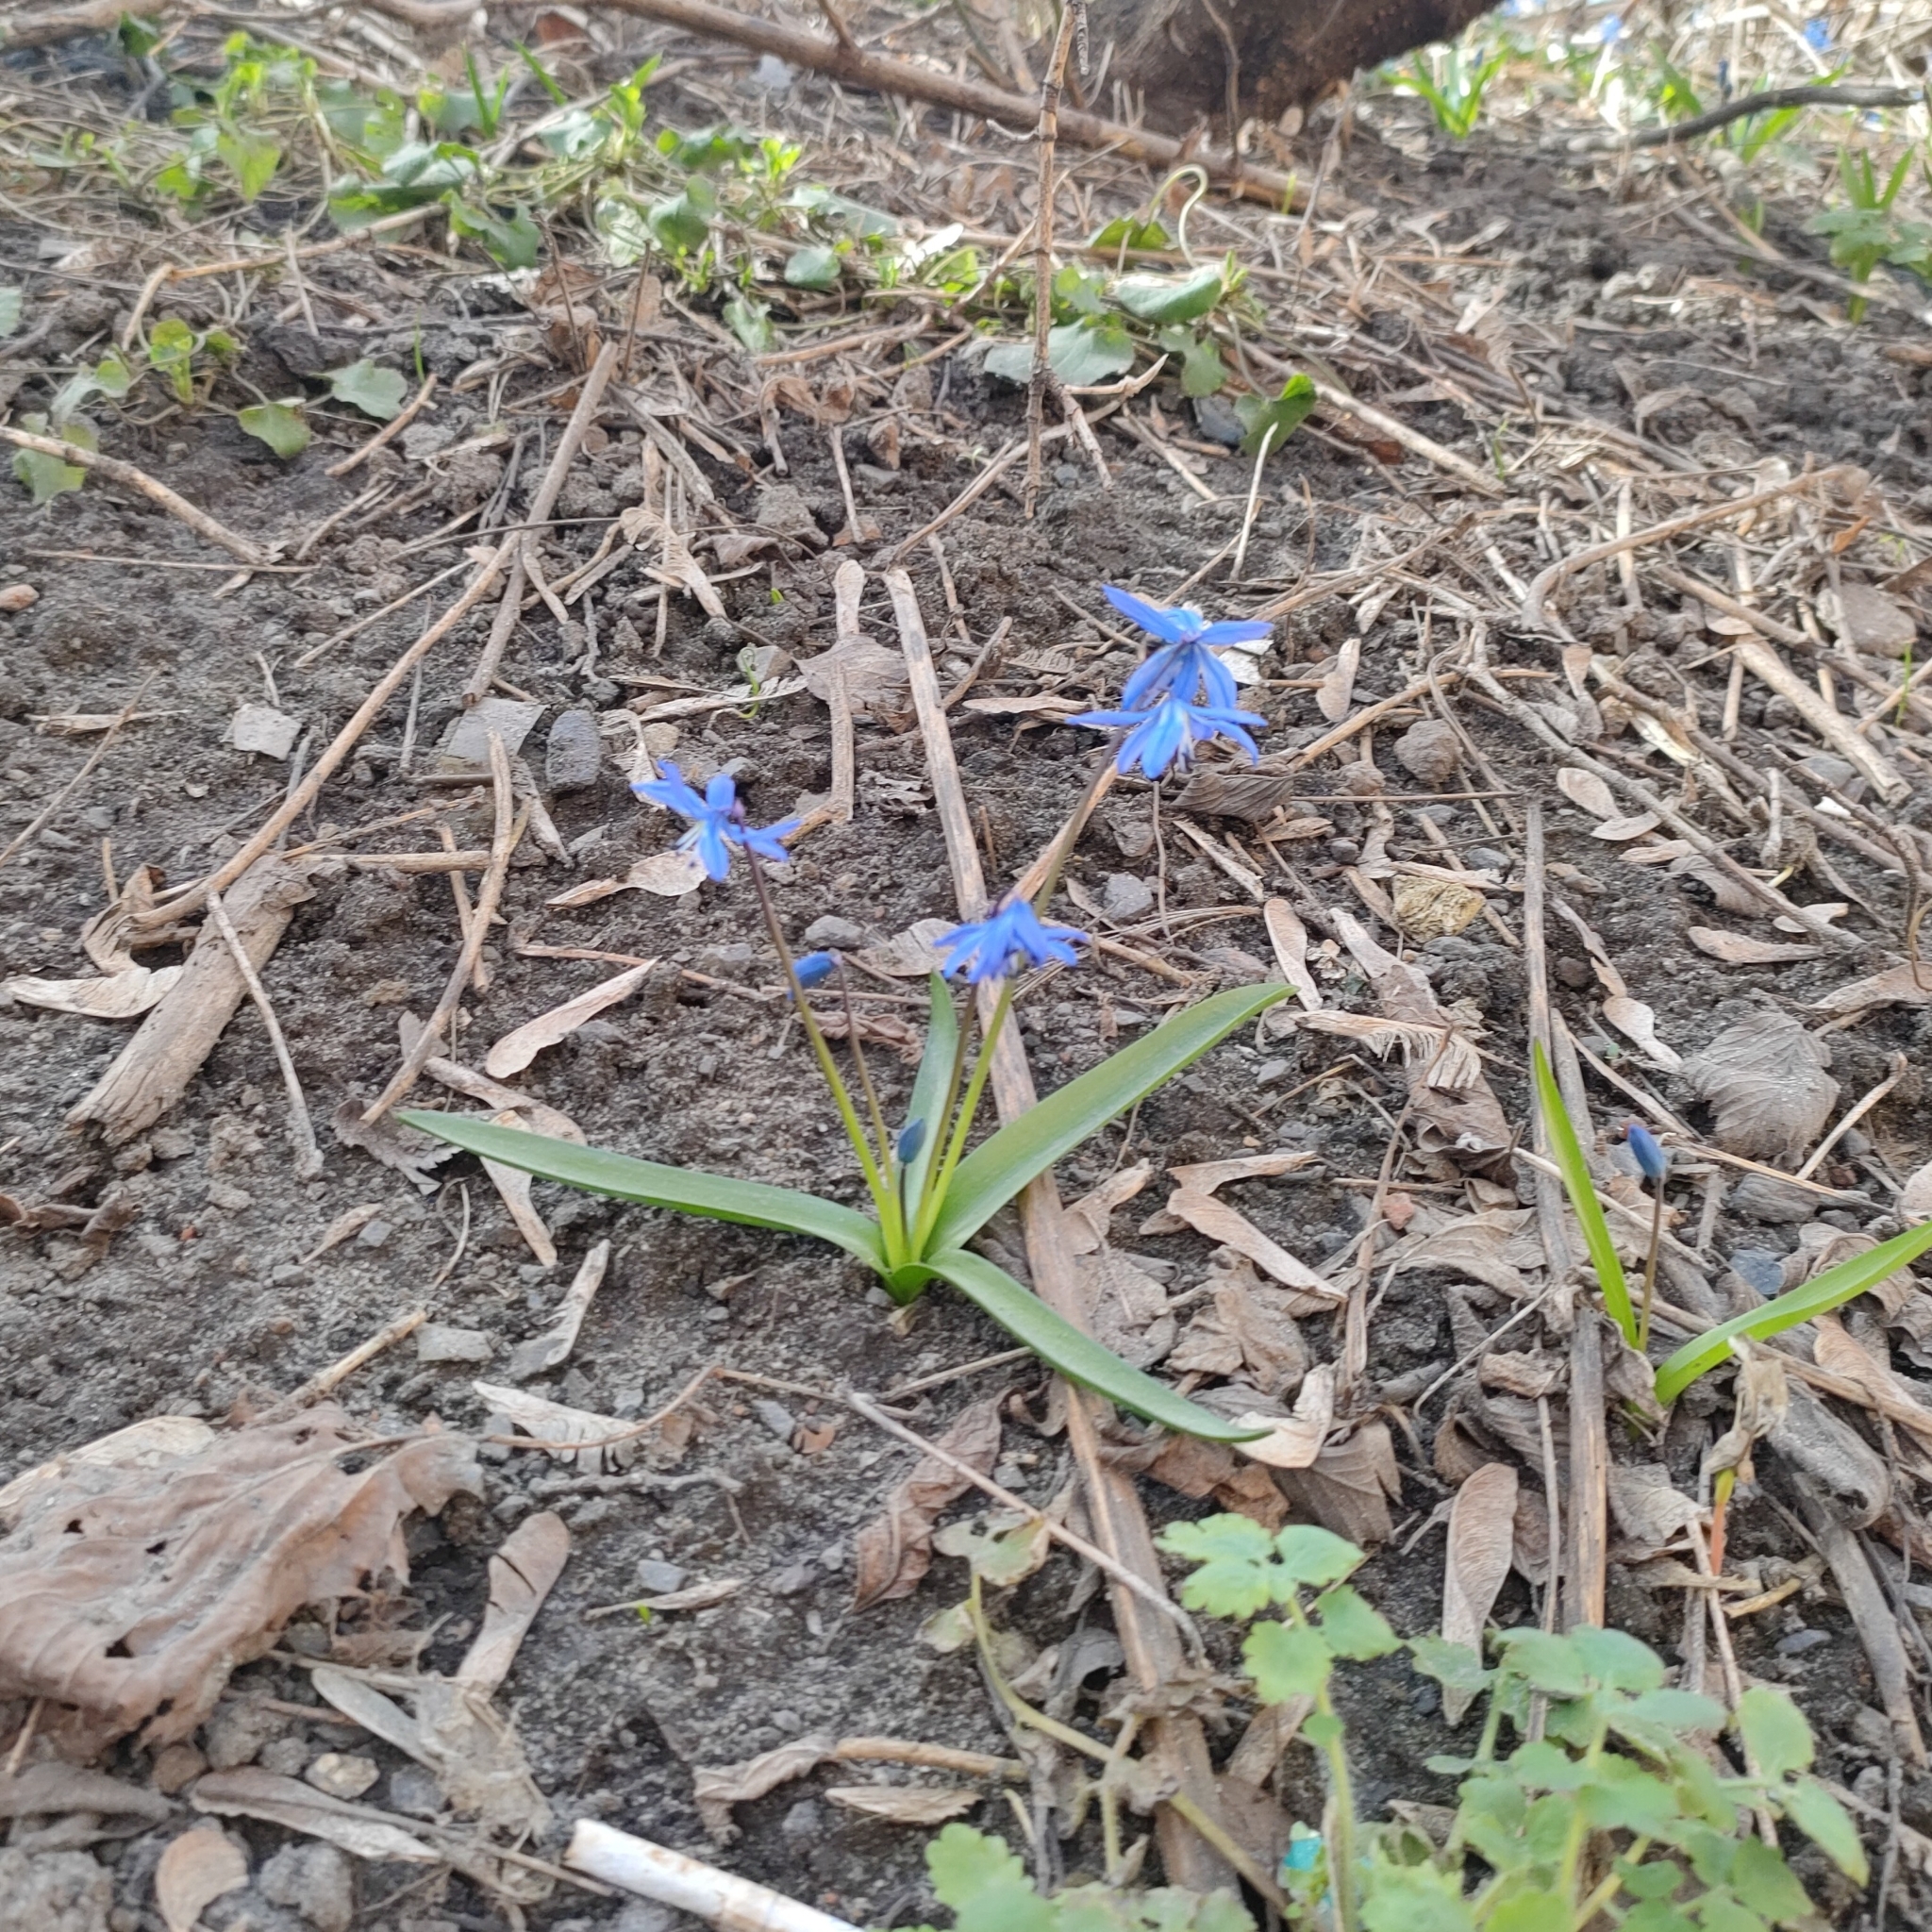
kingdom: Plantae
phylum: Tracheophyta
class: Liliopsida
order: Asparagales
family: Asparagaceae
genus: Scilla
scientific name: Scilla siberica
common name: Siberian squill
